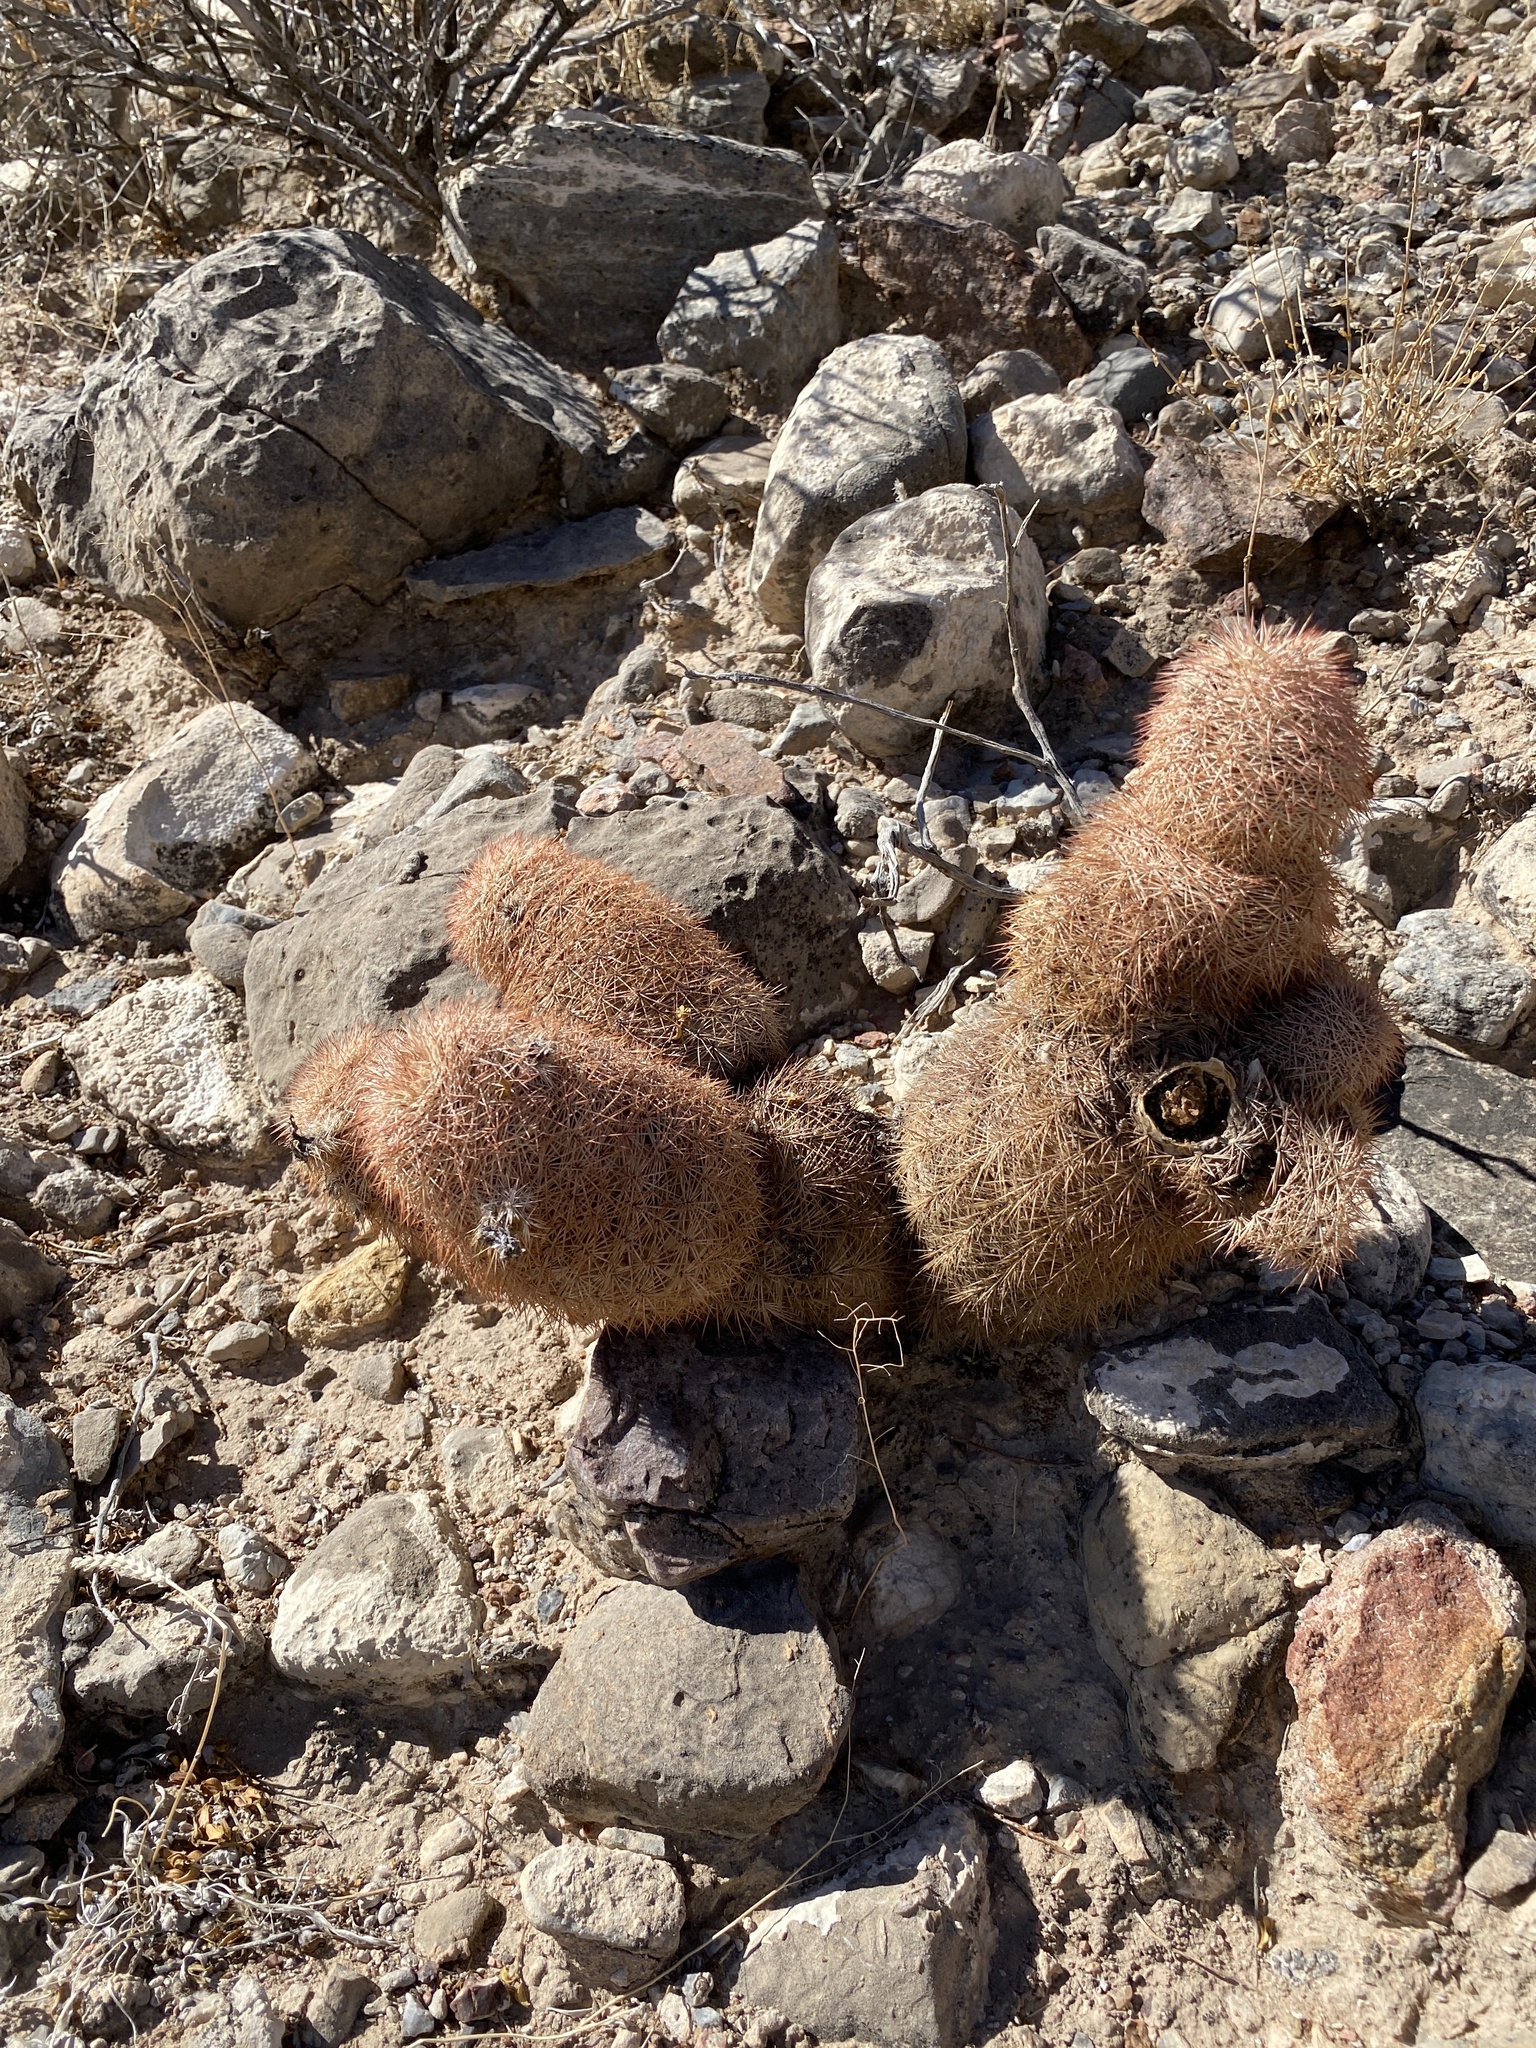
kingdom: Plantae
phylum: Tracheophyta
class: Magnoliopsida
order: Caryophyllales
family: Cactaceae
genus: Echinocereus
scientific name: Echinocereus dasyacanthus
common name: Spiny hedgehog cactus
